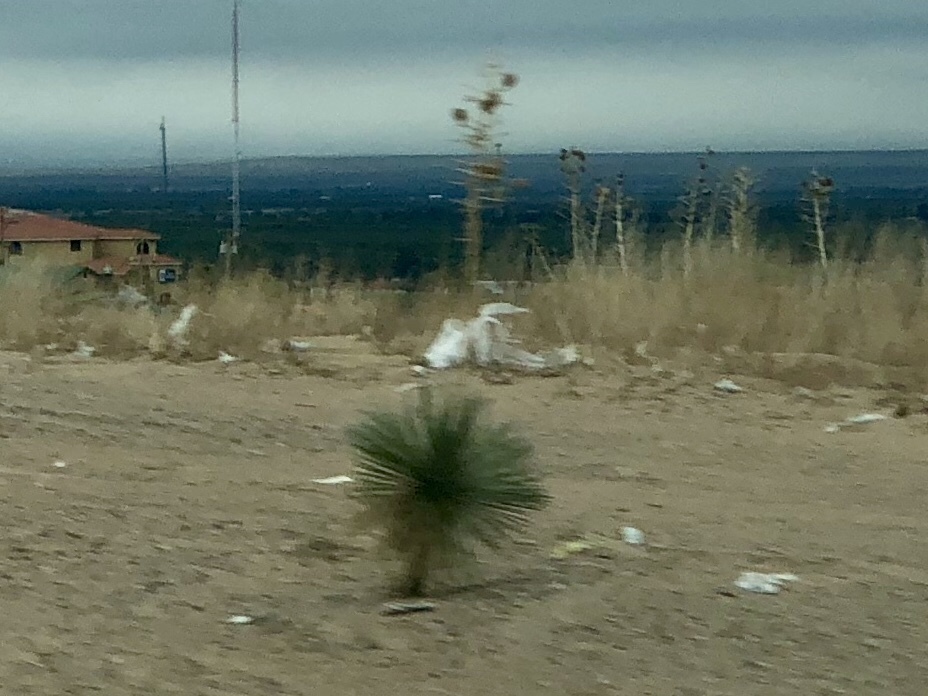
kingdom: Plantae
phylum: Tracheophyta
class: Liliopsida
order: Asparagales
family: Asparagaceae
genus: Yucca
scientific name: Yucca elata
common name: Palmella
